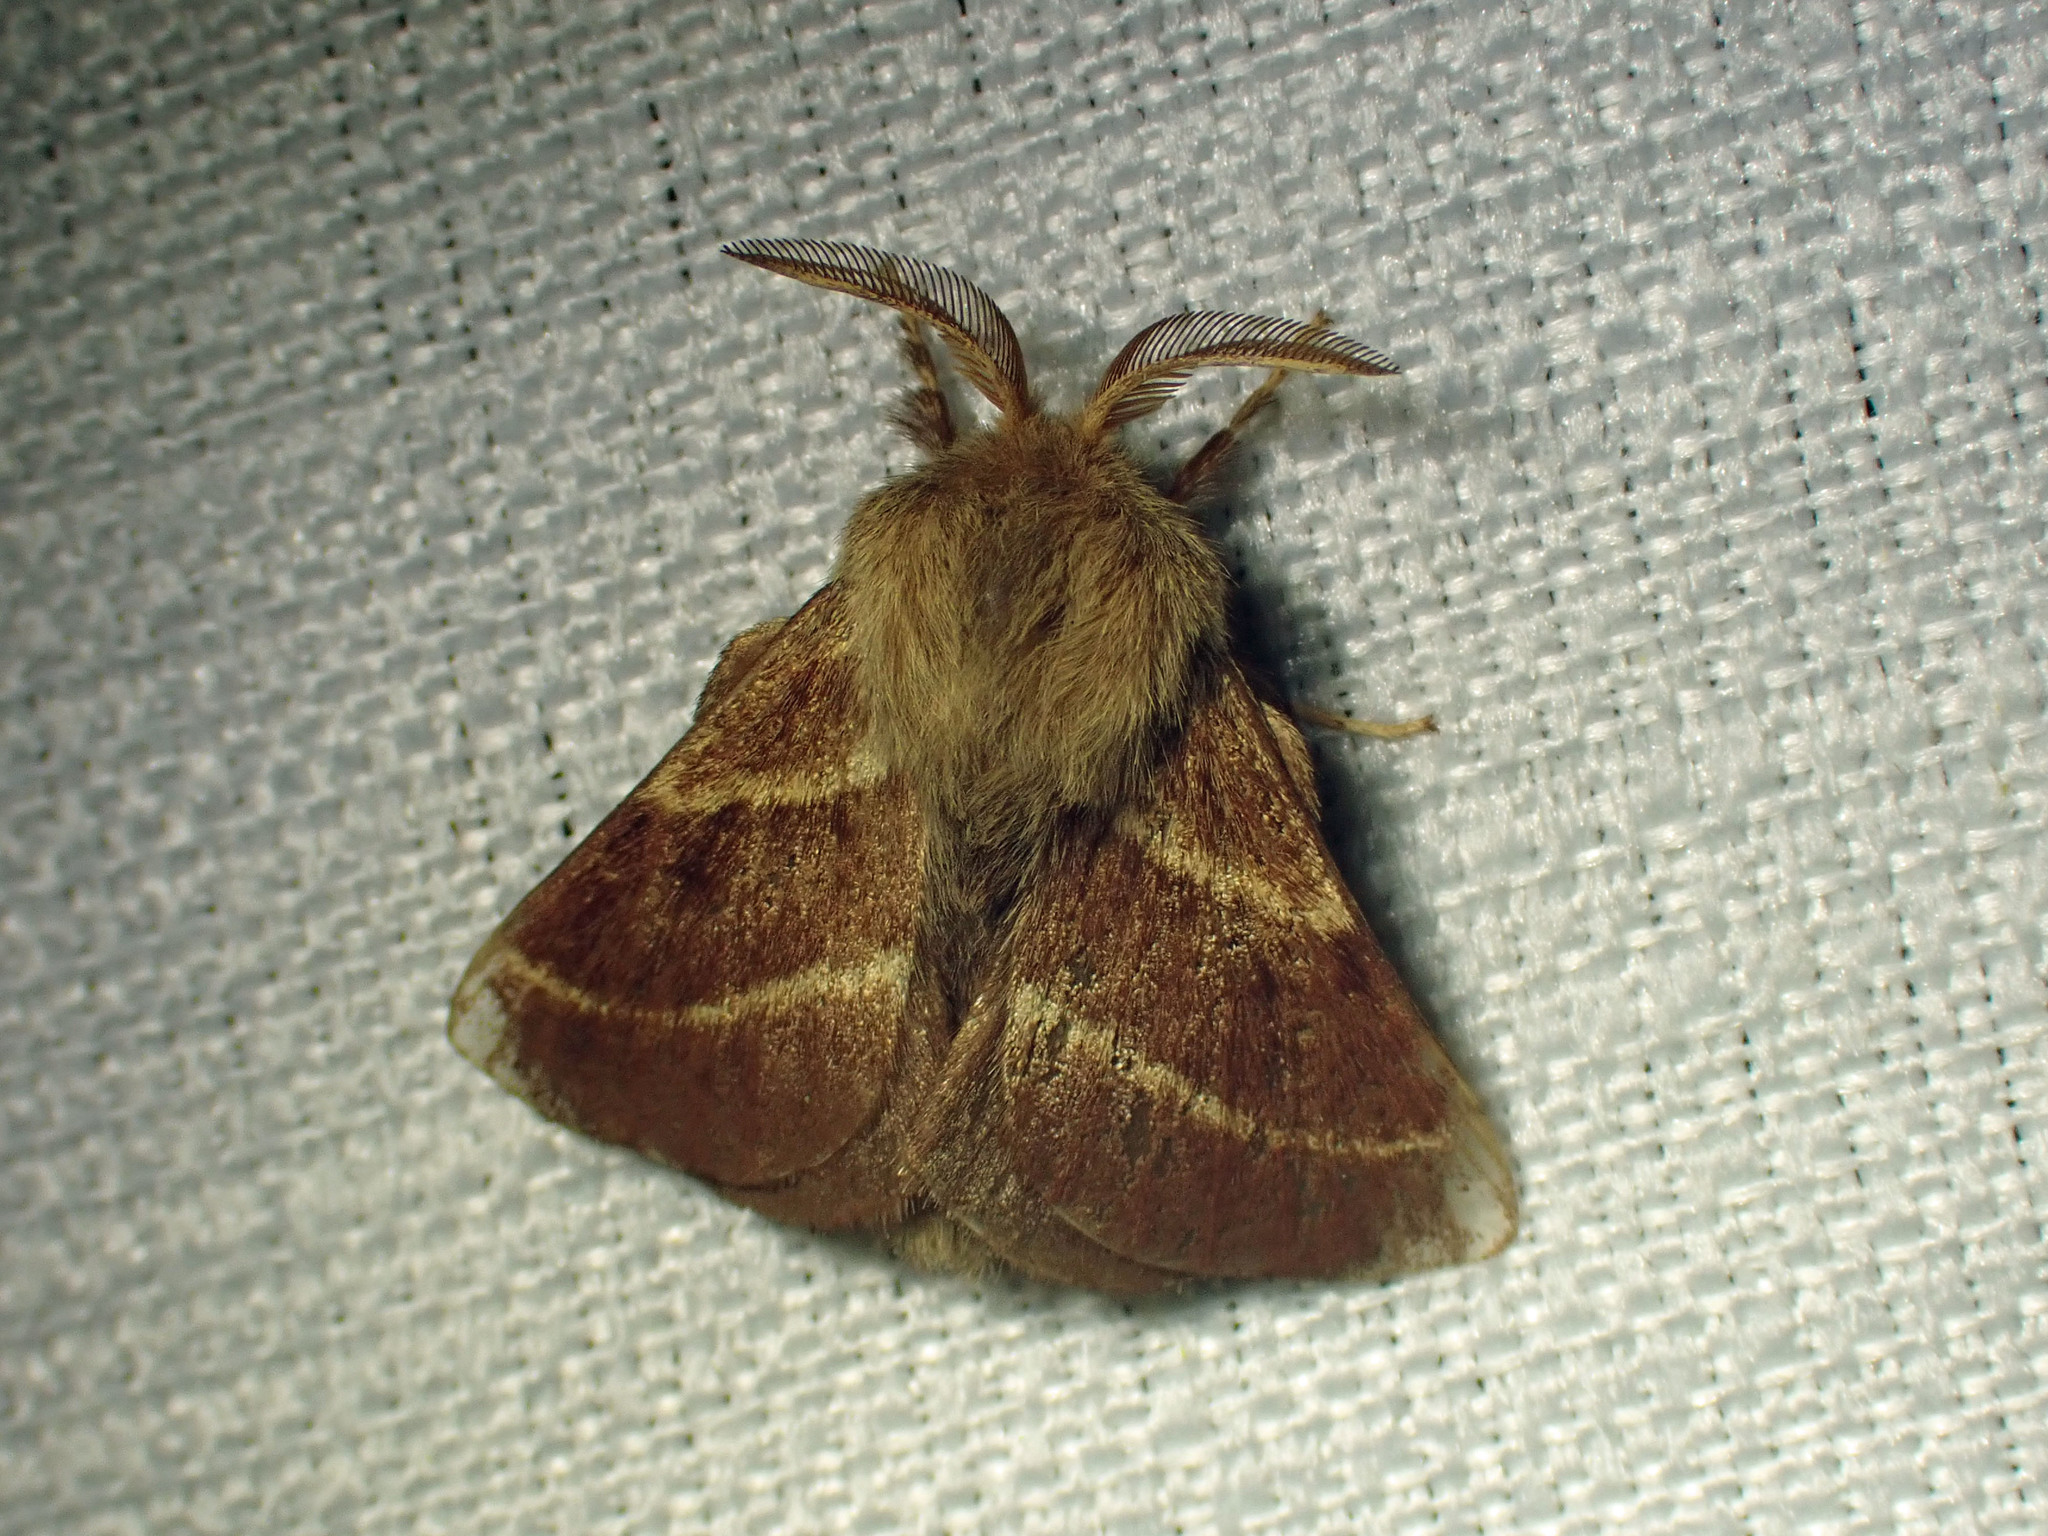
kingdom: Animalia
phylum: Arthropoda
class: Insecta
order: Lepidoptera
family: Lasiocampidae
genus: Malacosoma
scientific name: Malacosoma californica
